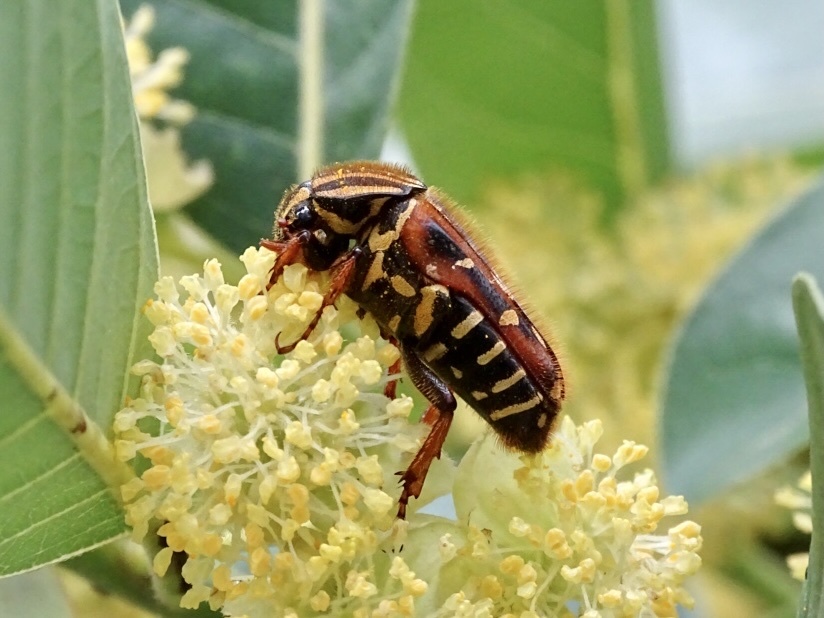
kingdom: Animalia
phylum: Arthropoda
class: Insecta
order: Coleoptera
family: Scarabaeidae
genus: Euselates
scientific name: Euselates magna
